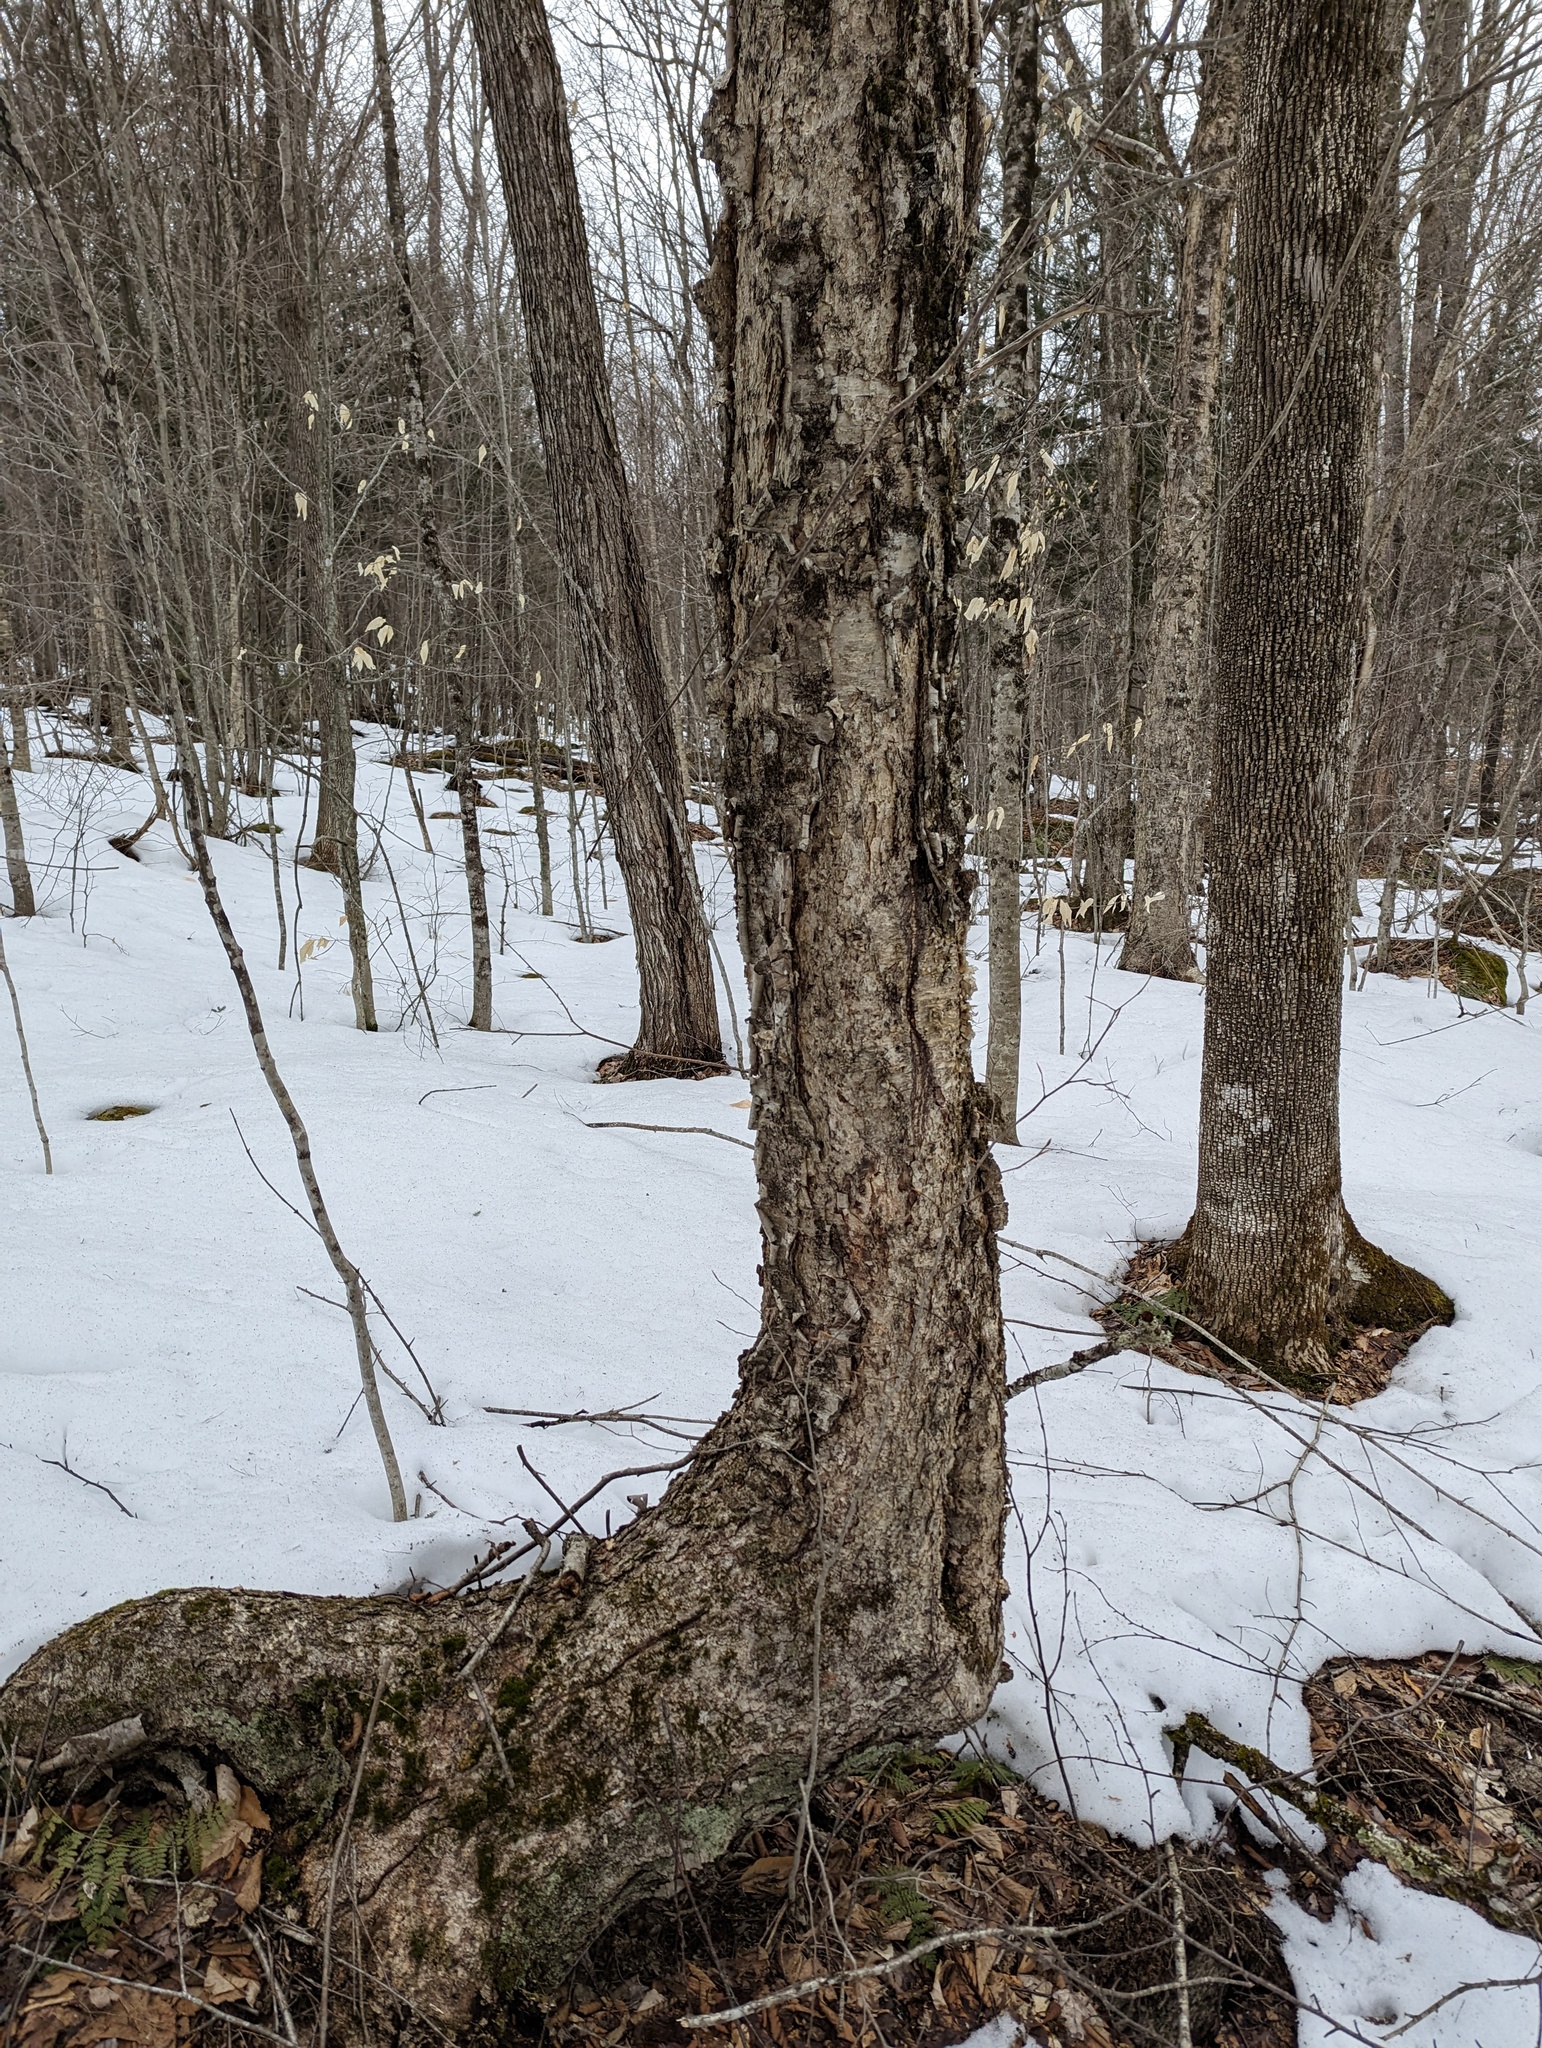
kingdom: Plantae
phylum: Tracheophyta
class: Magnoliopsida
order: Fagales
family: Betulaceae
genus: Betula
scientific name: Betula alleghaniensis
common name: Yellow birch
